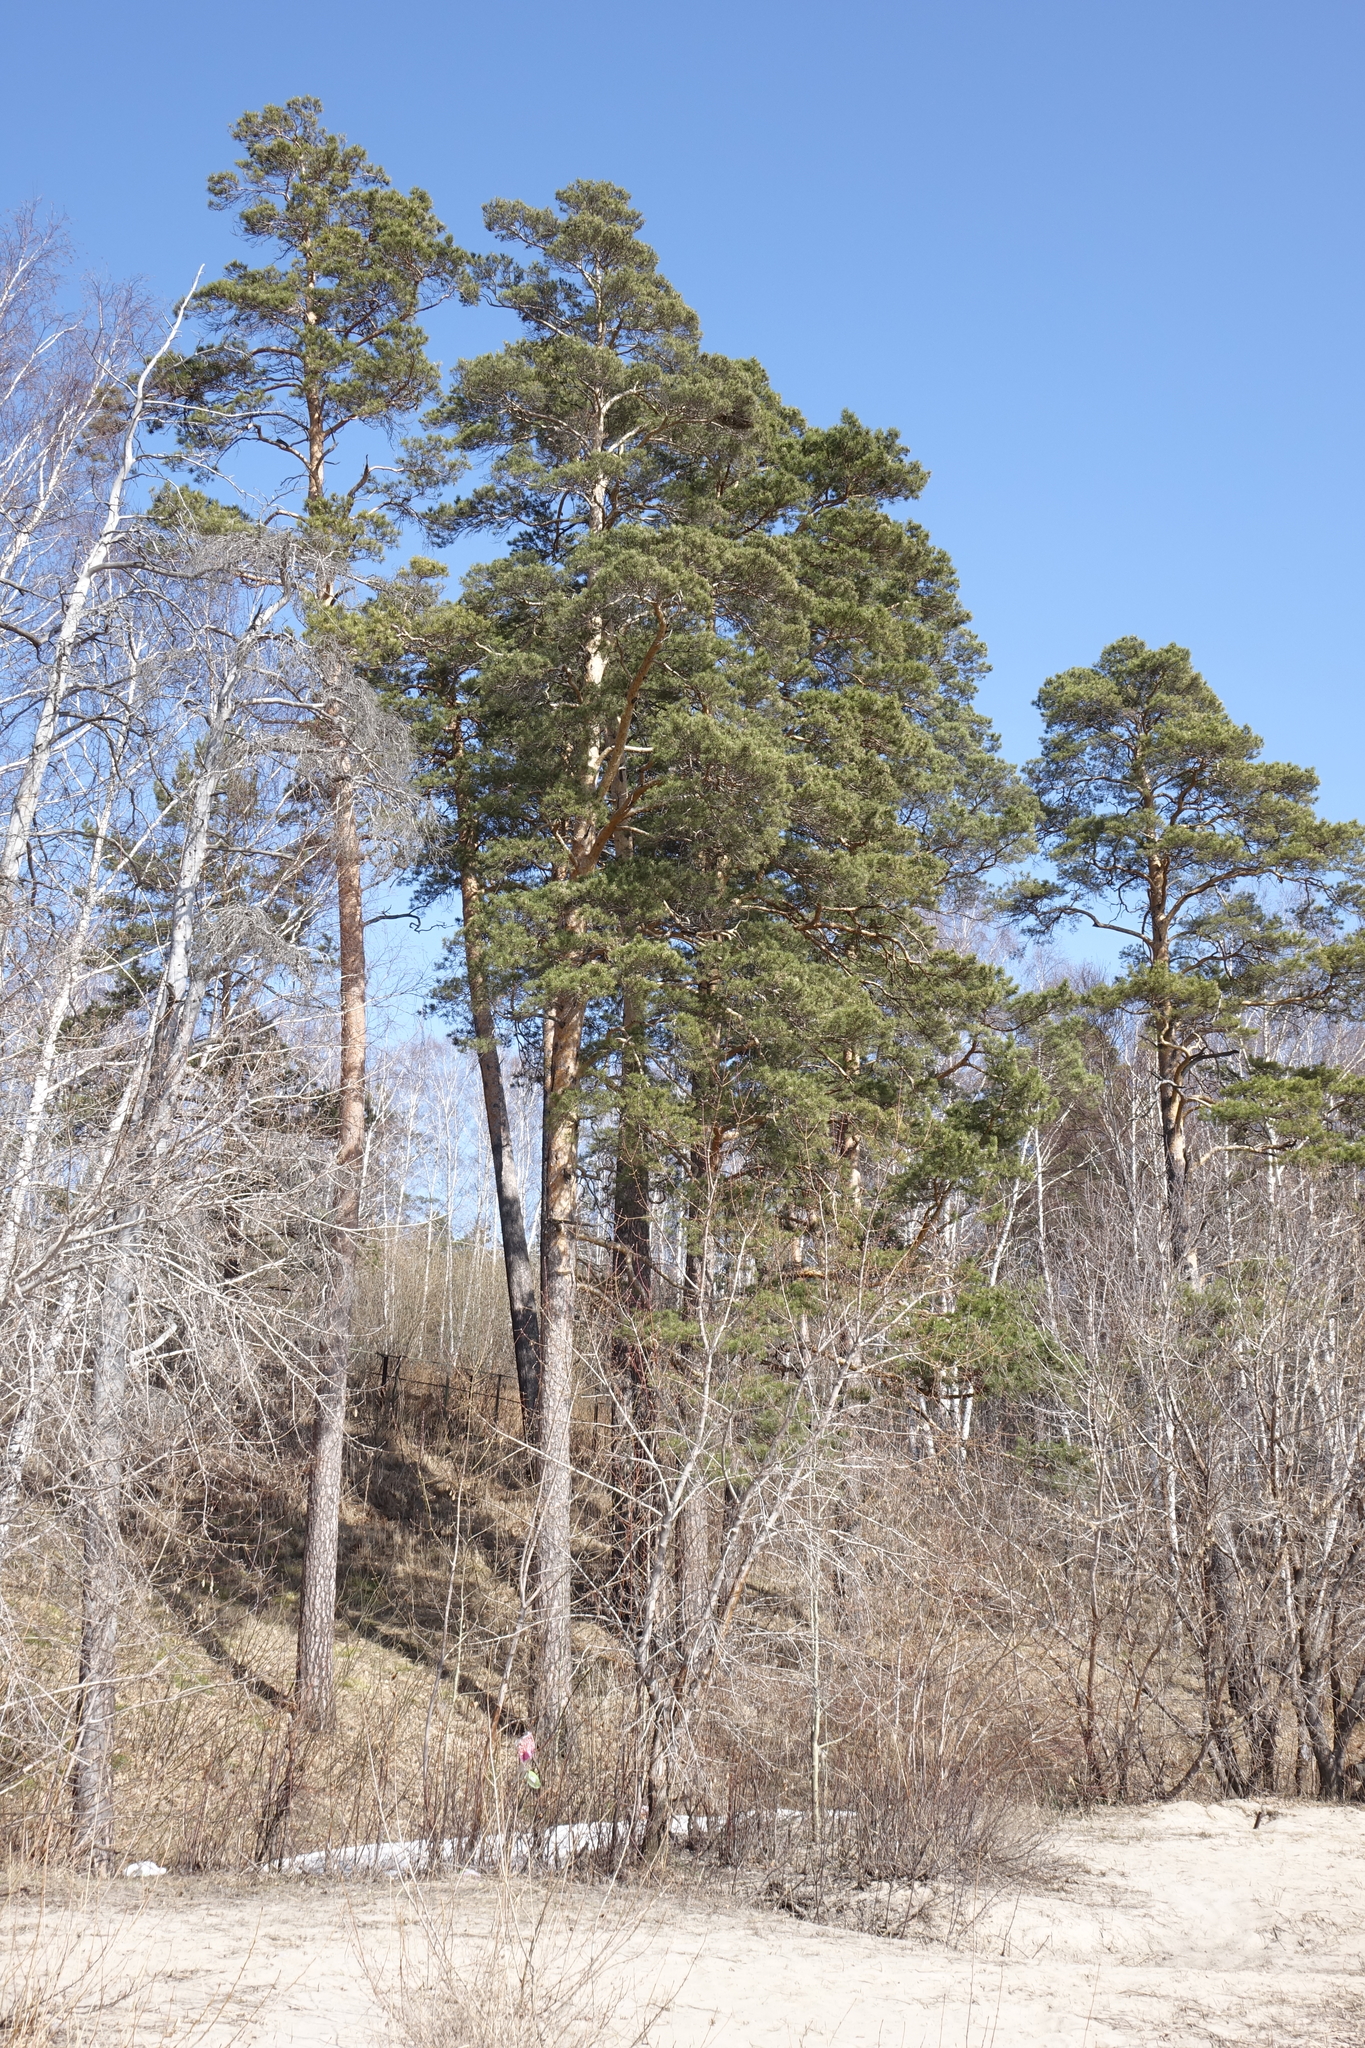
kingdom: Plantae
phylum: Tracheophyta
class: Pinopsida
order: Pinales
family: Pinaceae
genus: Pinus
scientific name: Pinus sylvestris
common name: Scots pine
